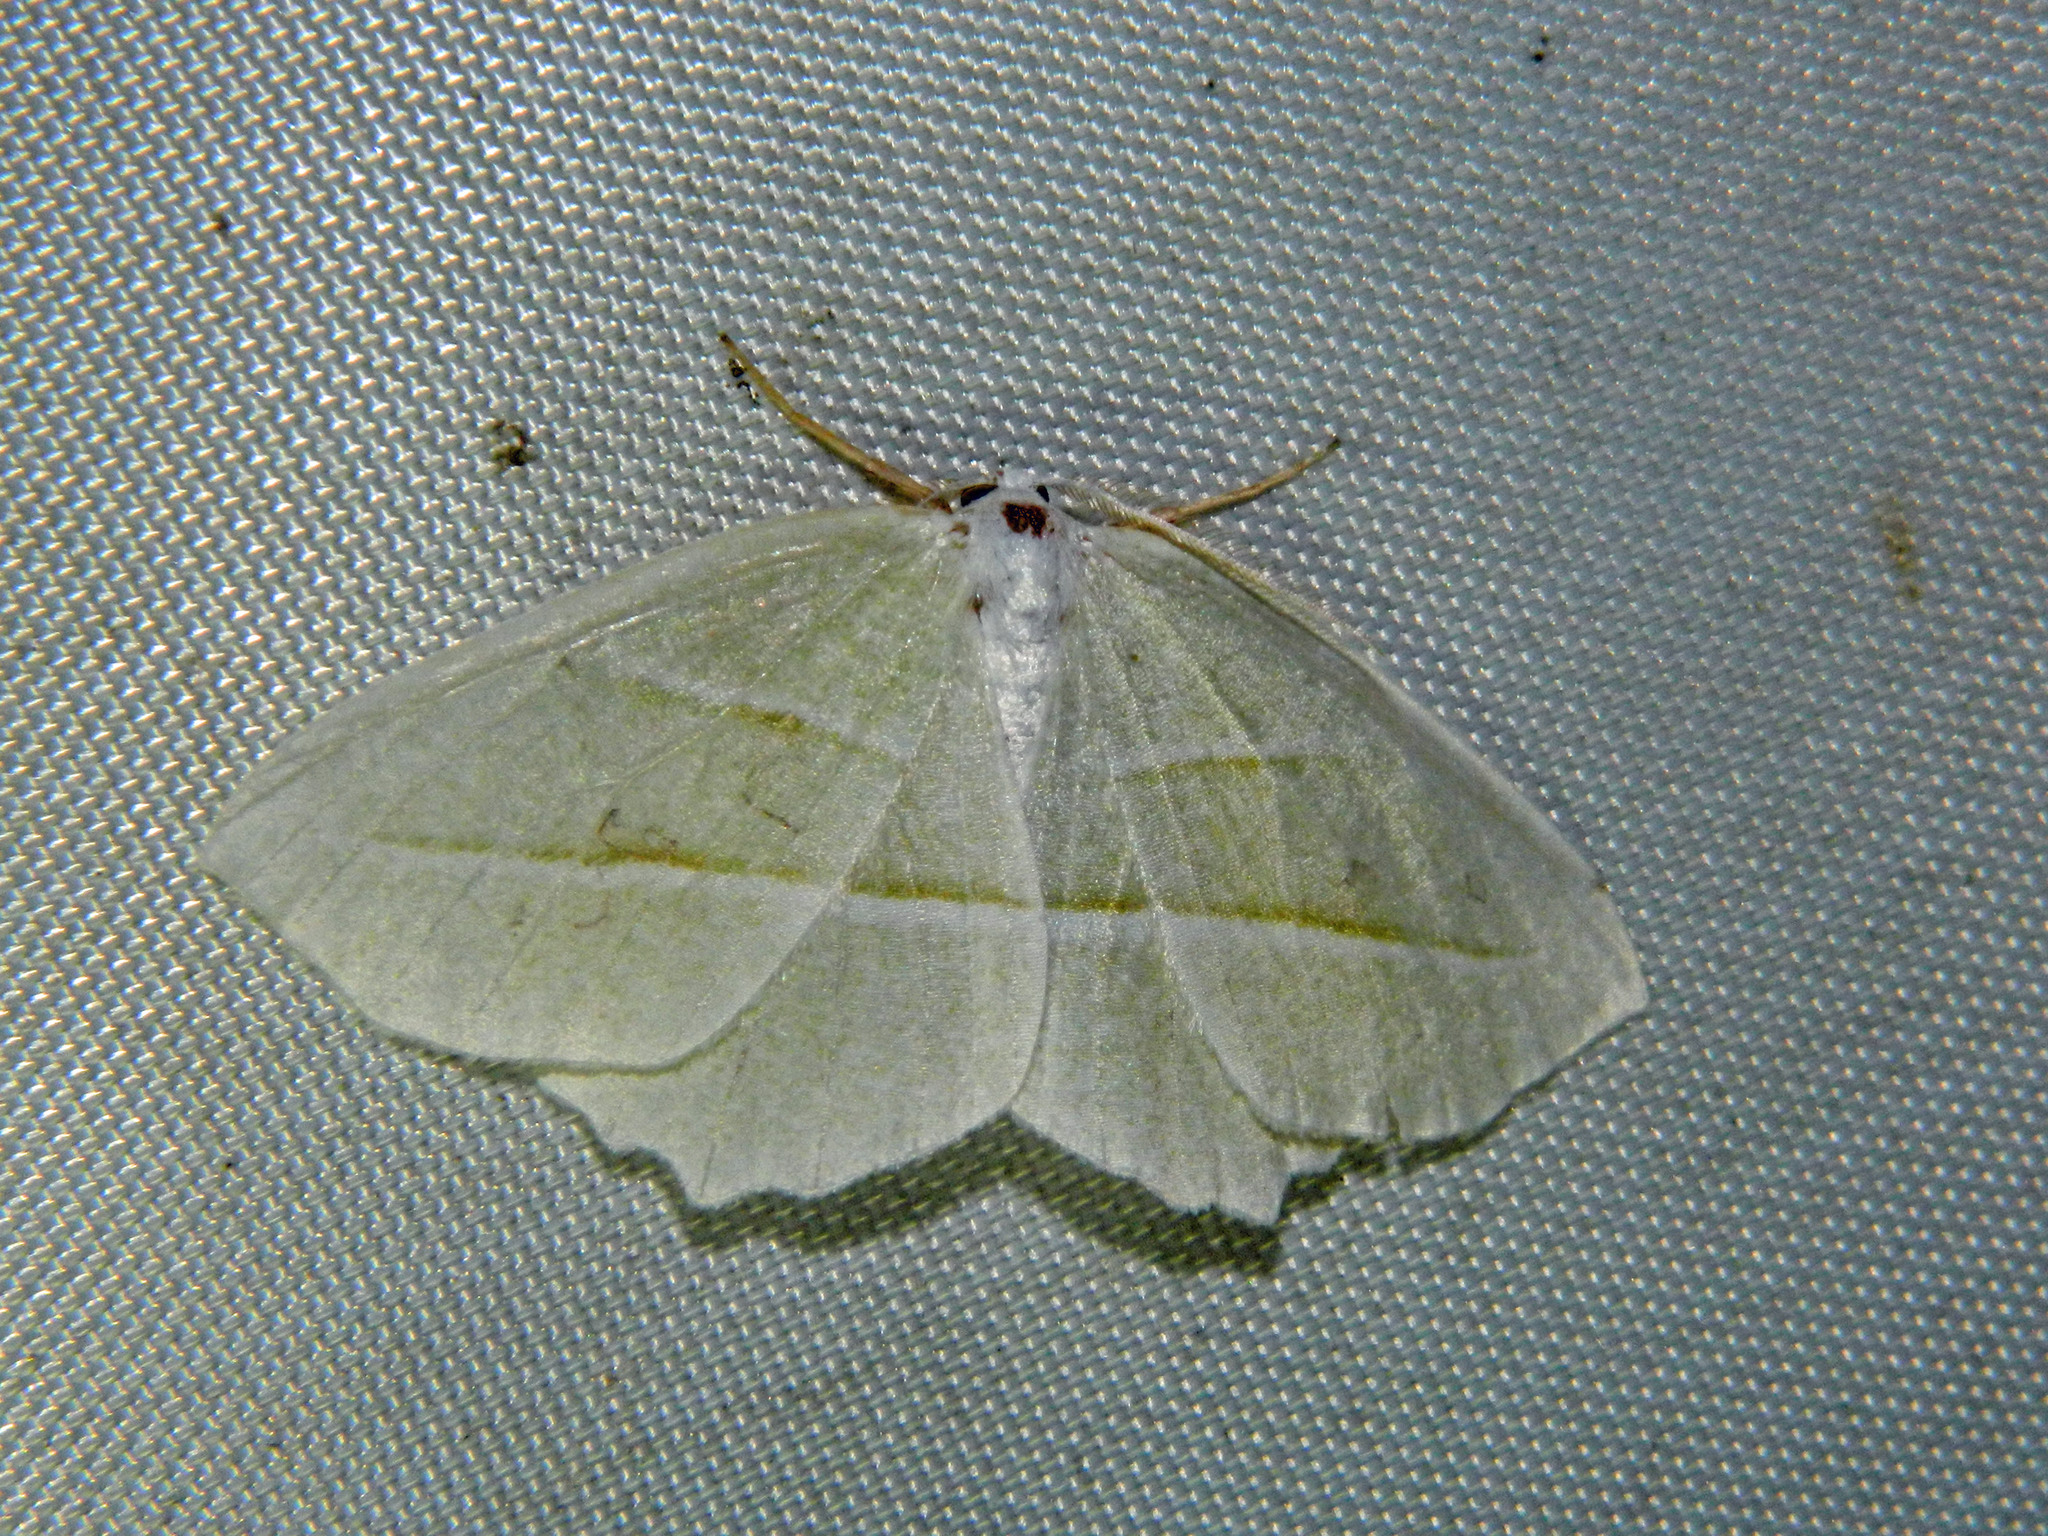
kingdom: Animalia
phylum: Arthropoda
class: Insecta
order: Lepidoptera
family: Geometridae
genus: Campaea
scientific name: Campaea perlata
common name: Fringed looper
